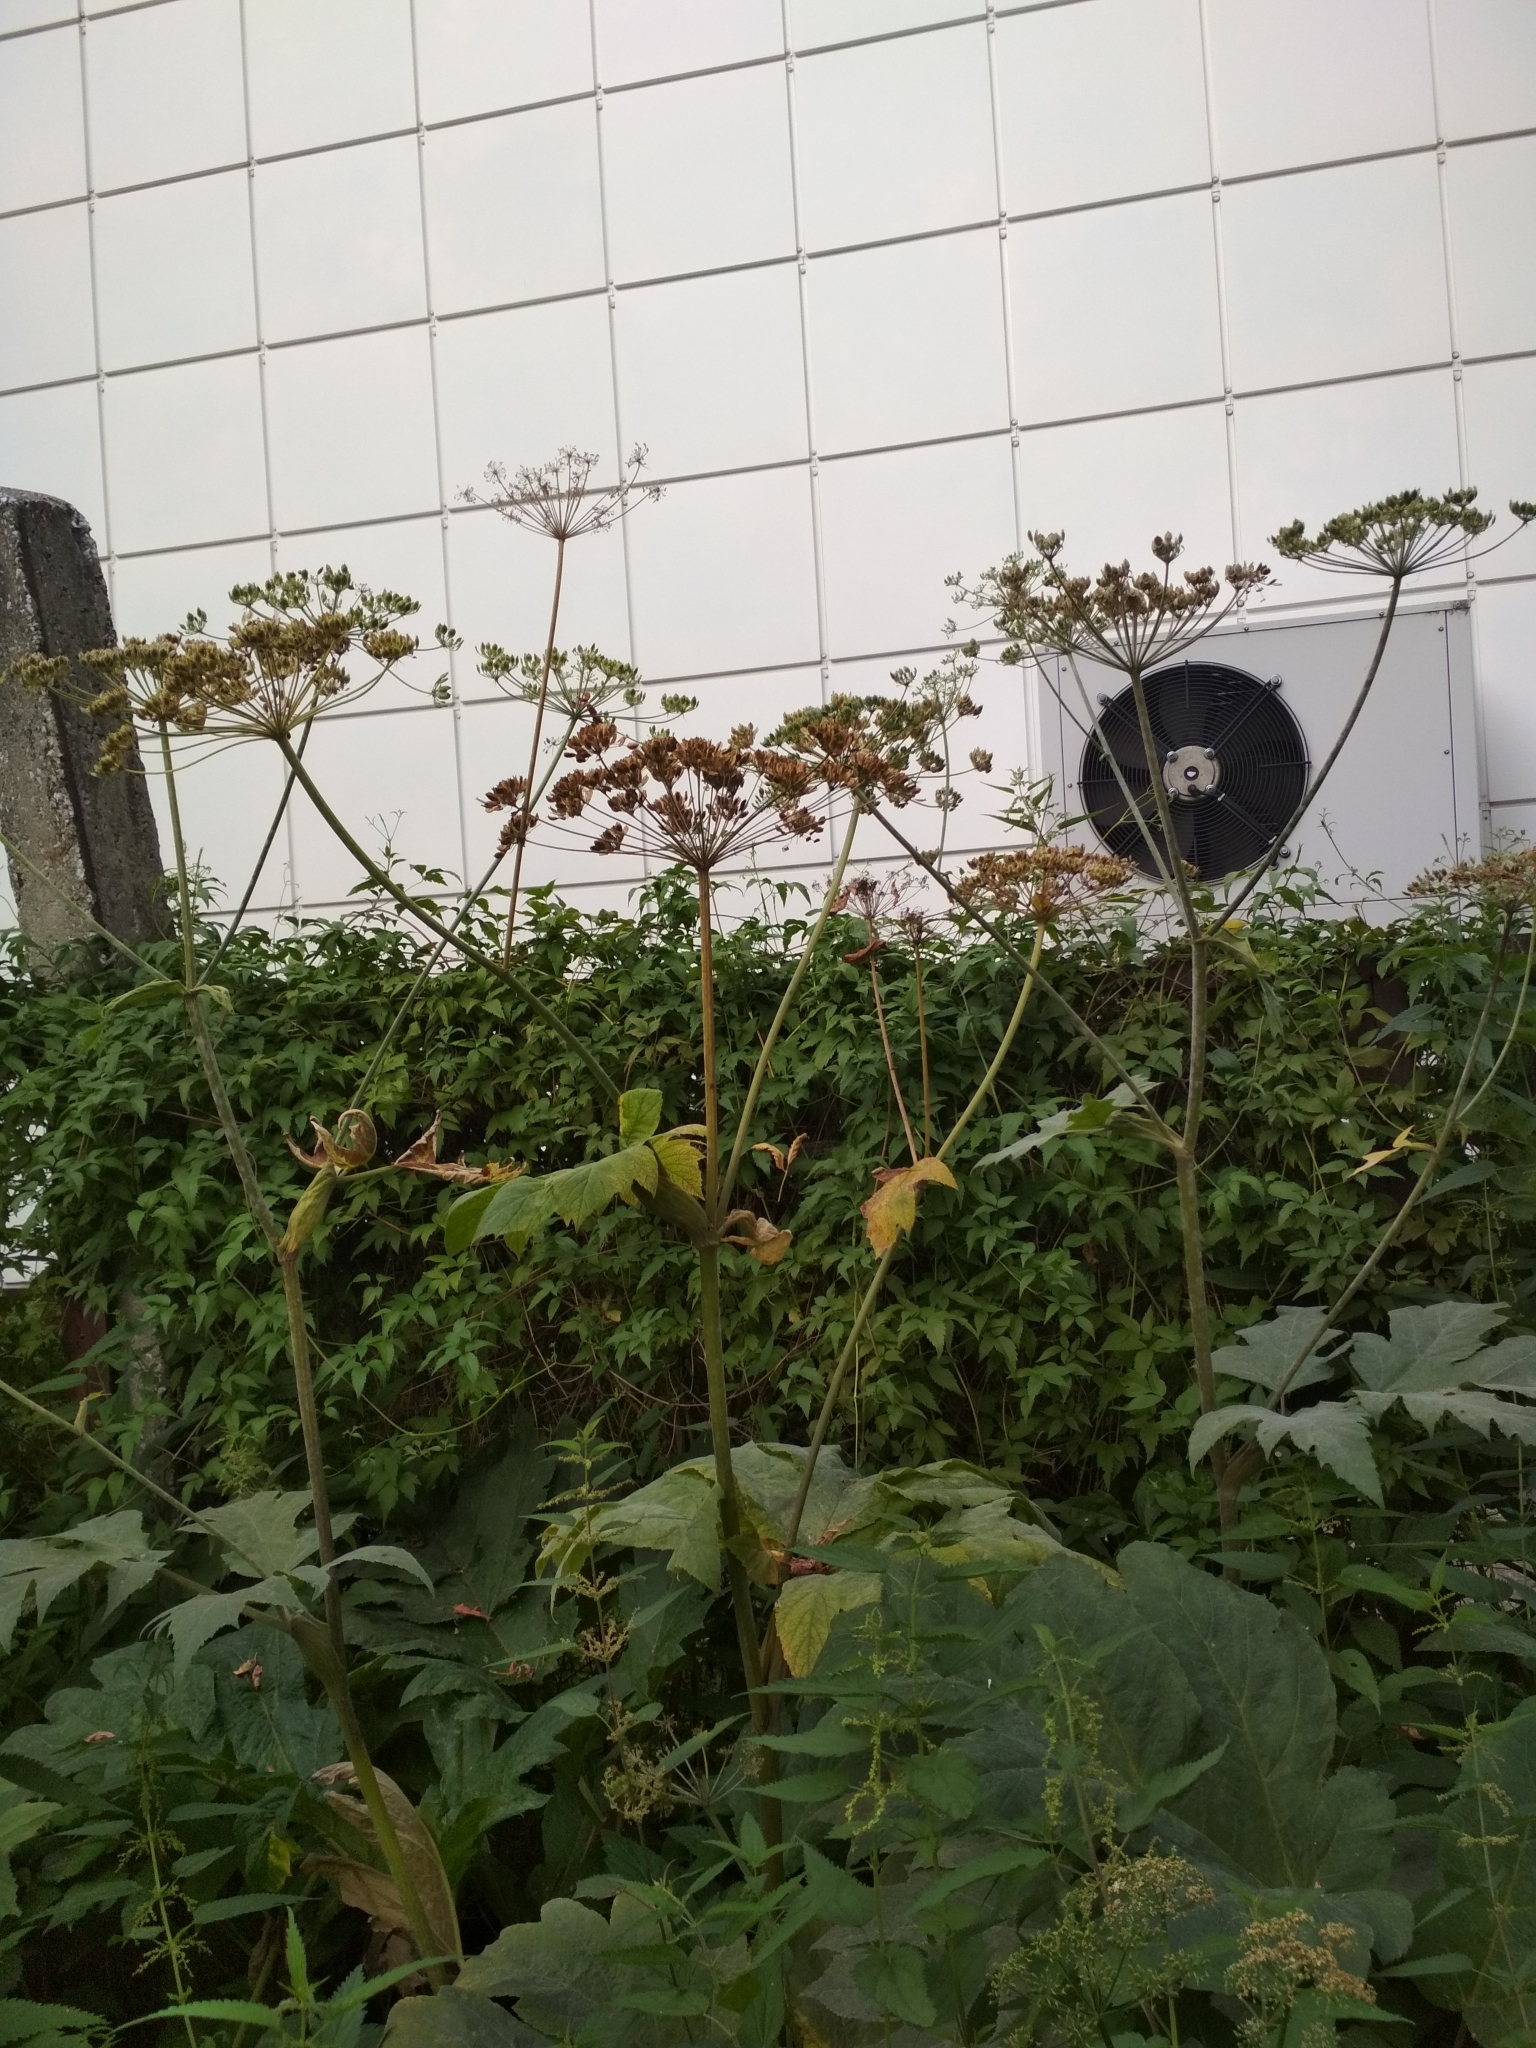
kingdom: Plantae
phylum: Tracheophyta
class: Magnoliopsida
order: Apiales
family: Apiaceae
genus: Heracleum
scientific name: Heracleum dissectum
